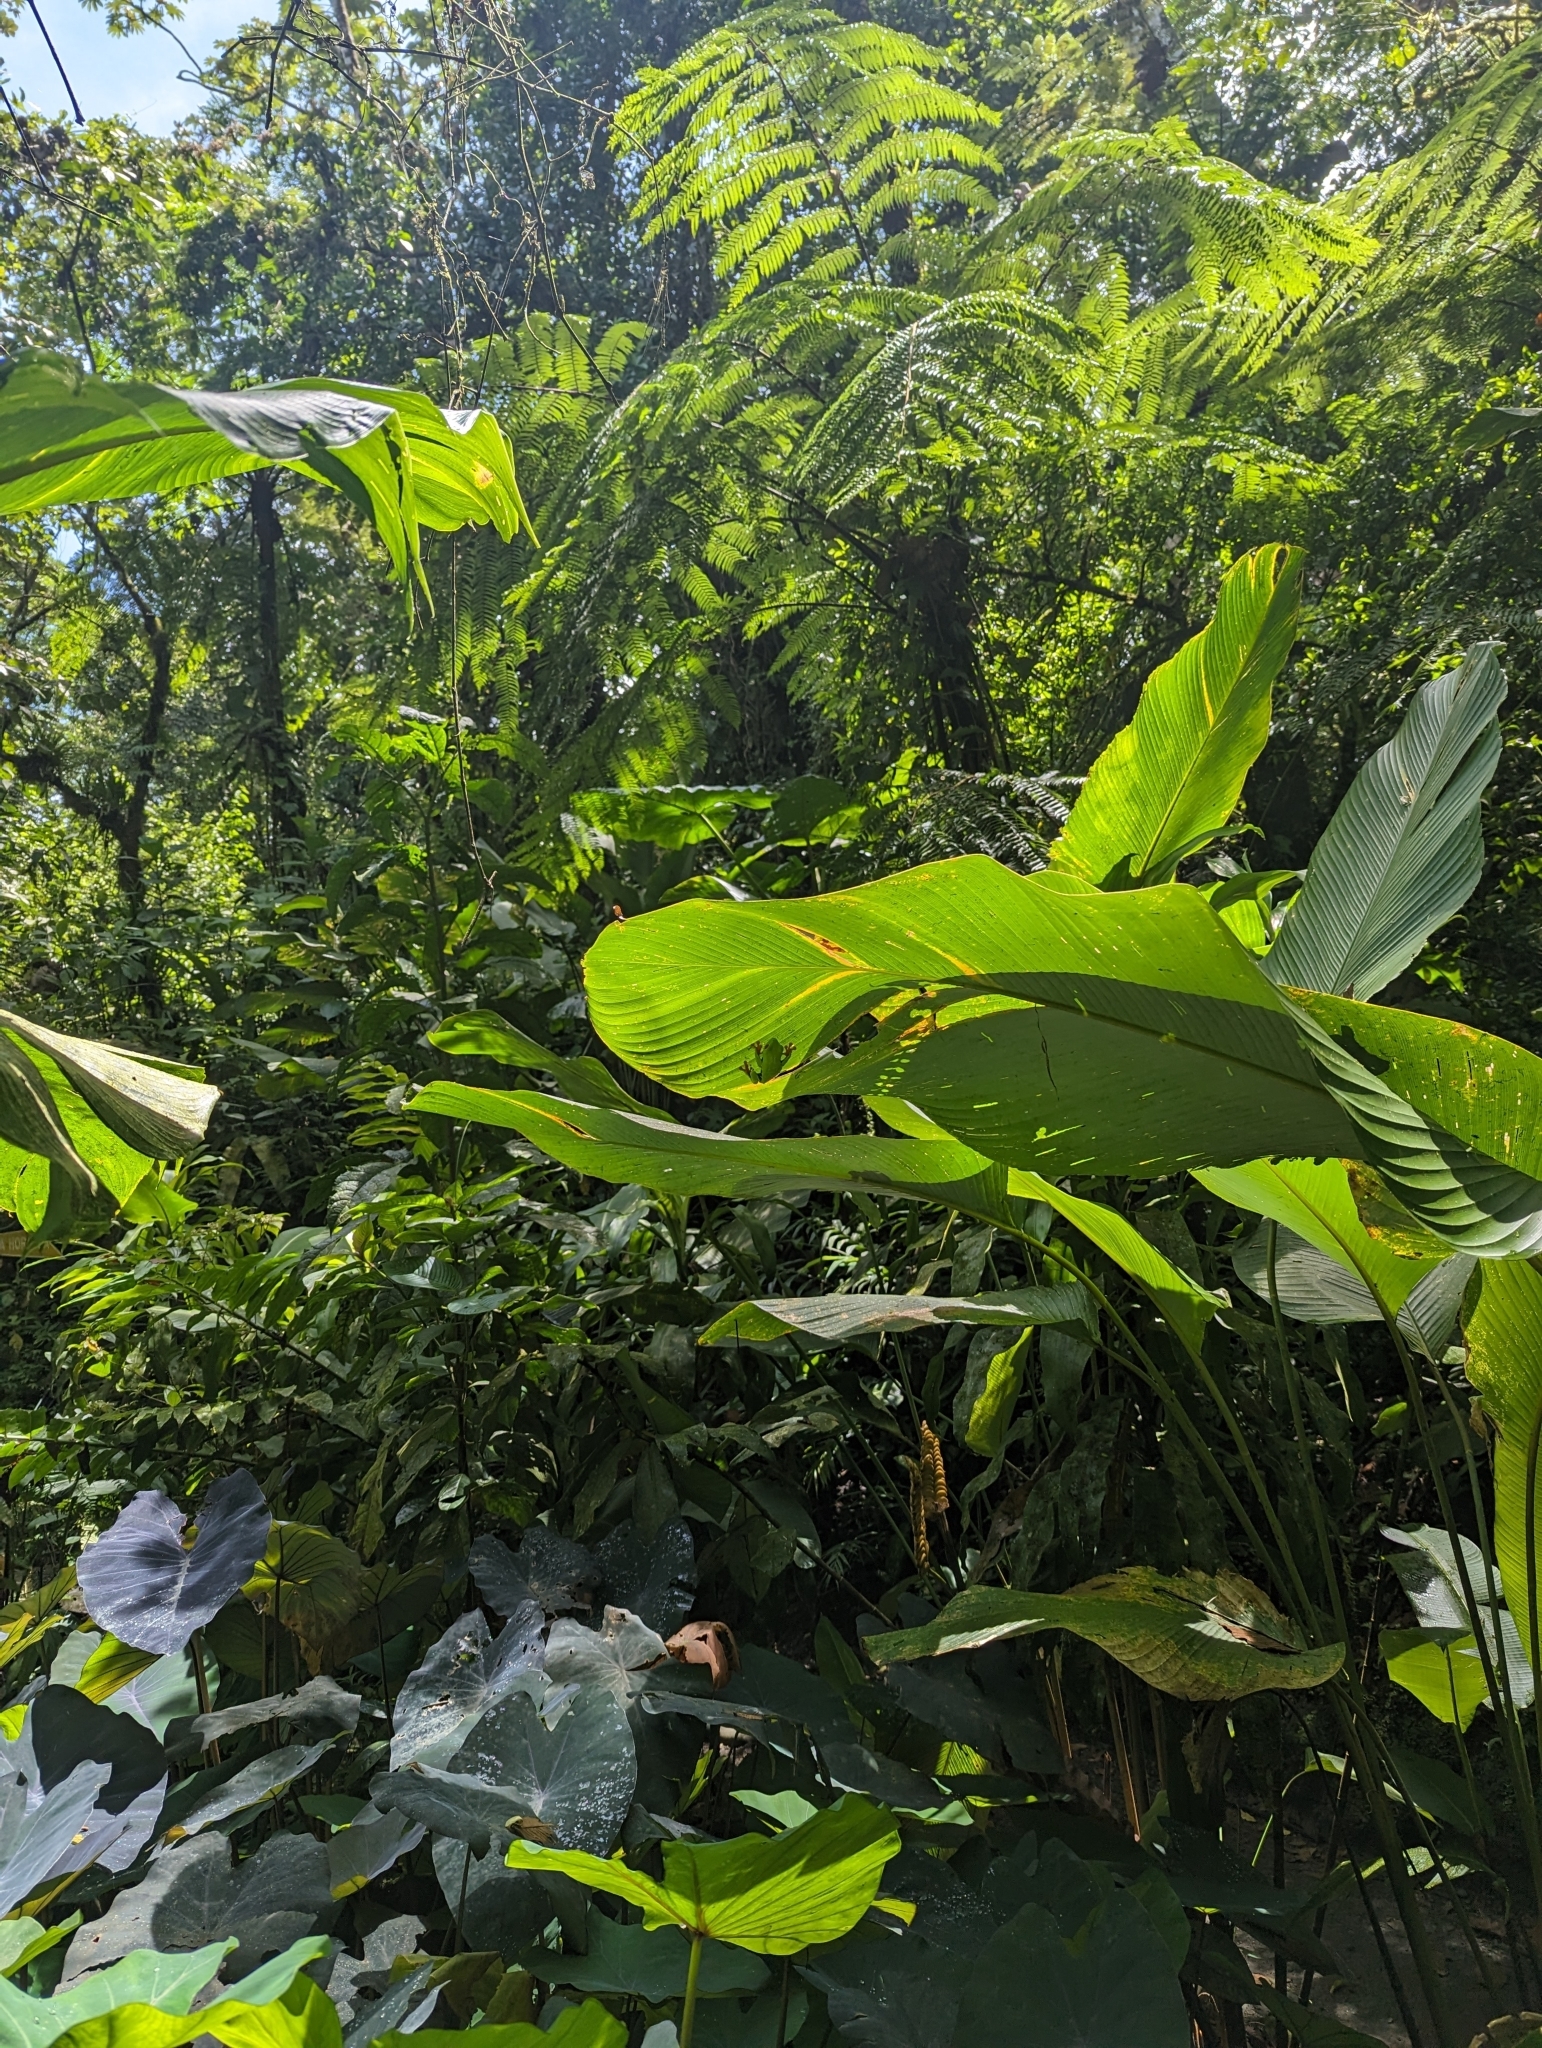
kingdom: Animalia
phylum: Chordata
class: Amphibia
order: Anura
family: Phyllomedusidae
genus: Agalychnis
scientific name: Agalychnis callidryas
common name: Red-eyed treefrog
